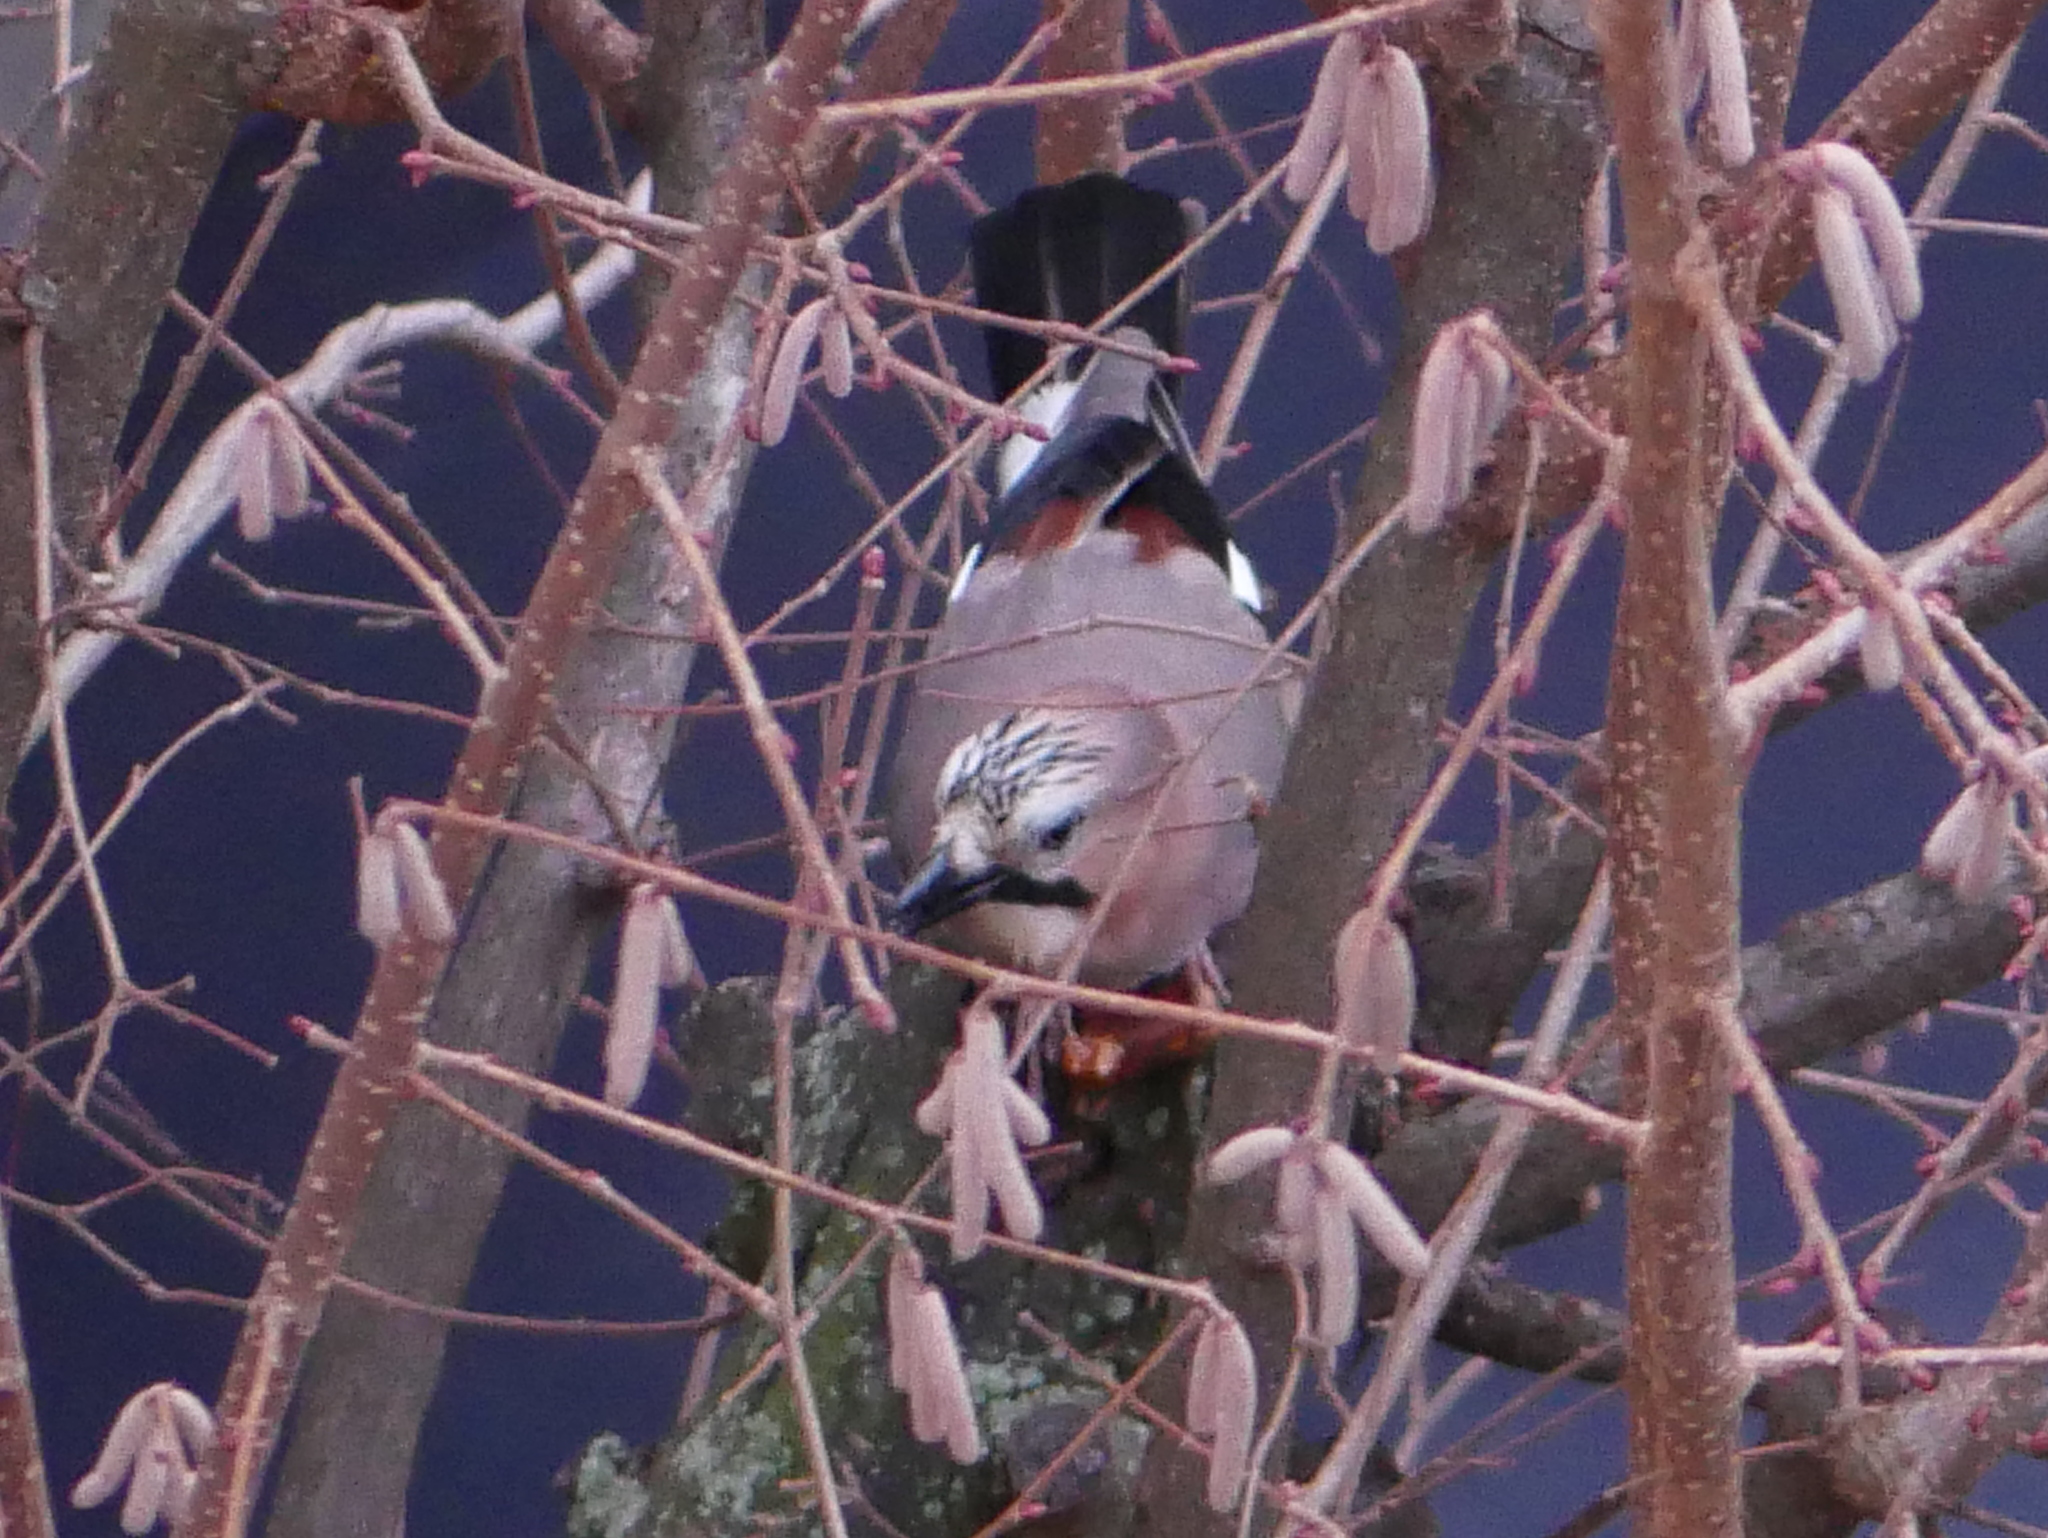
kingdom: Animalia
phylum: Chordata
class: Aves
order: Passeriformes
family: Corvidae
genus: Garrulus
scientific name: Garrulus glandarius
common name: Eurasian jay
